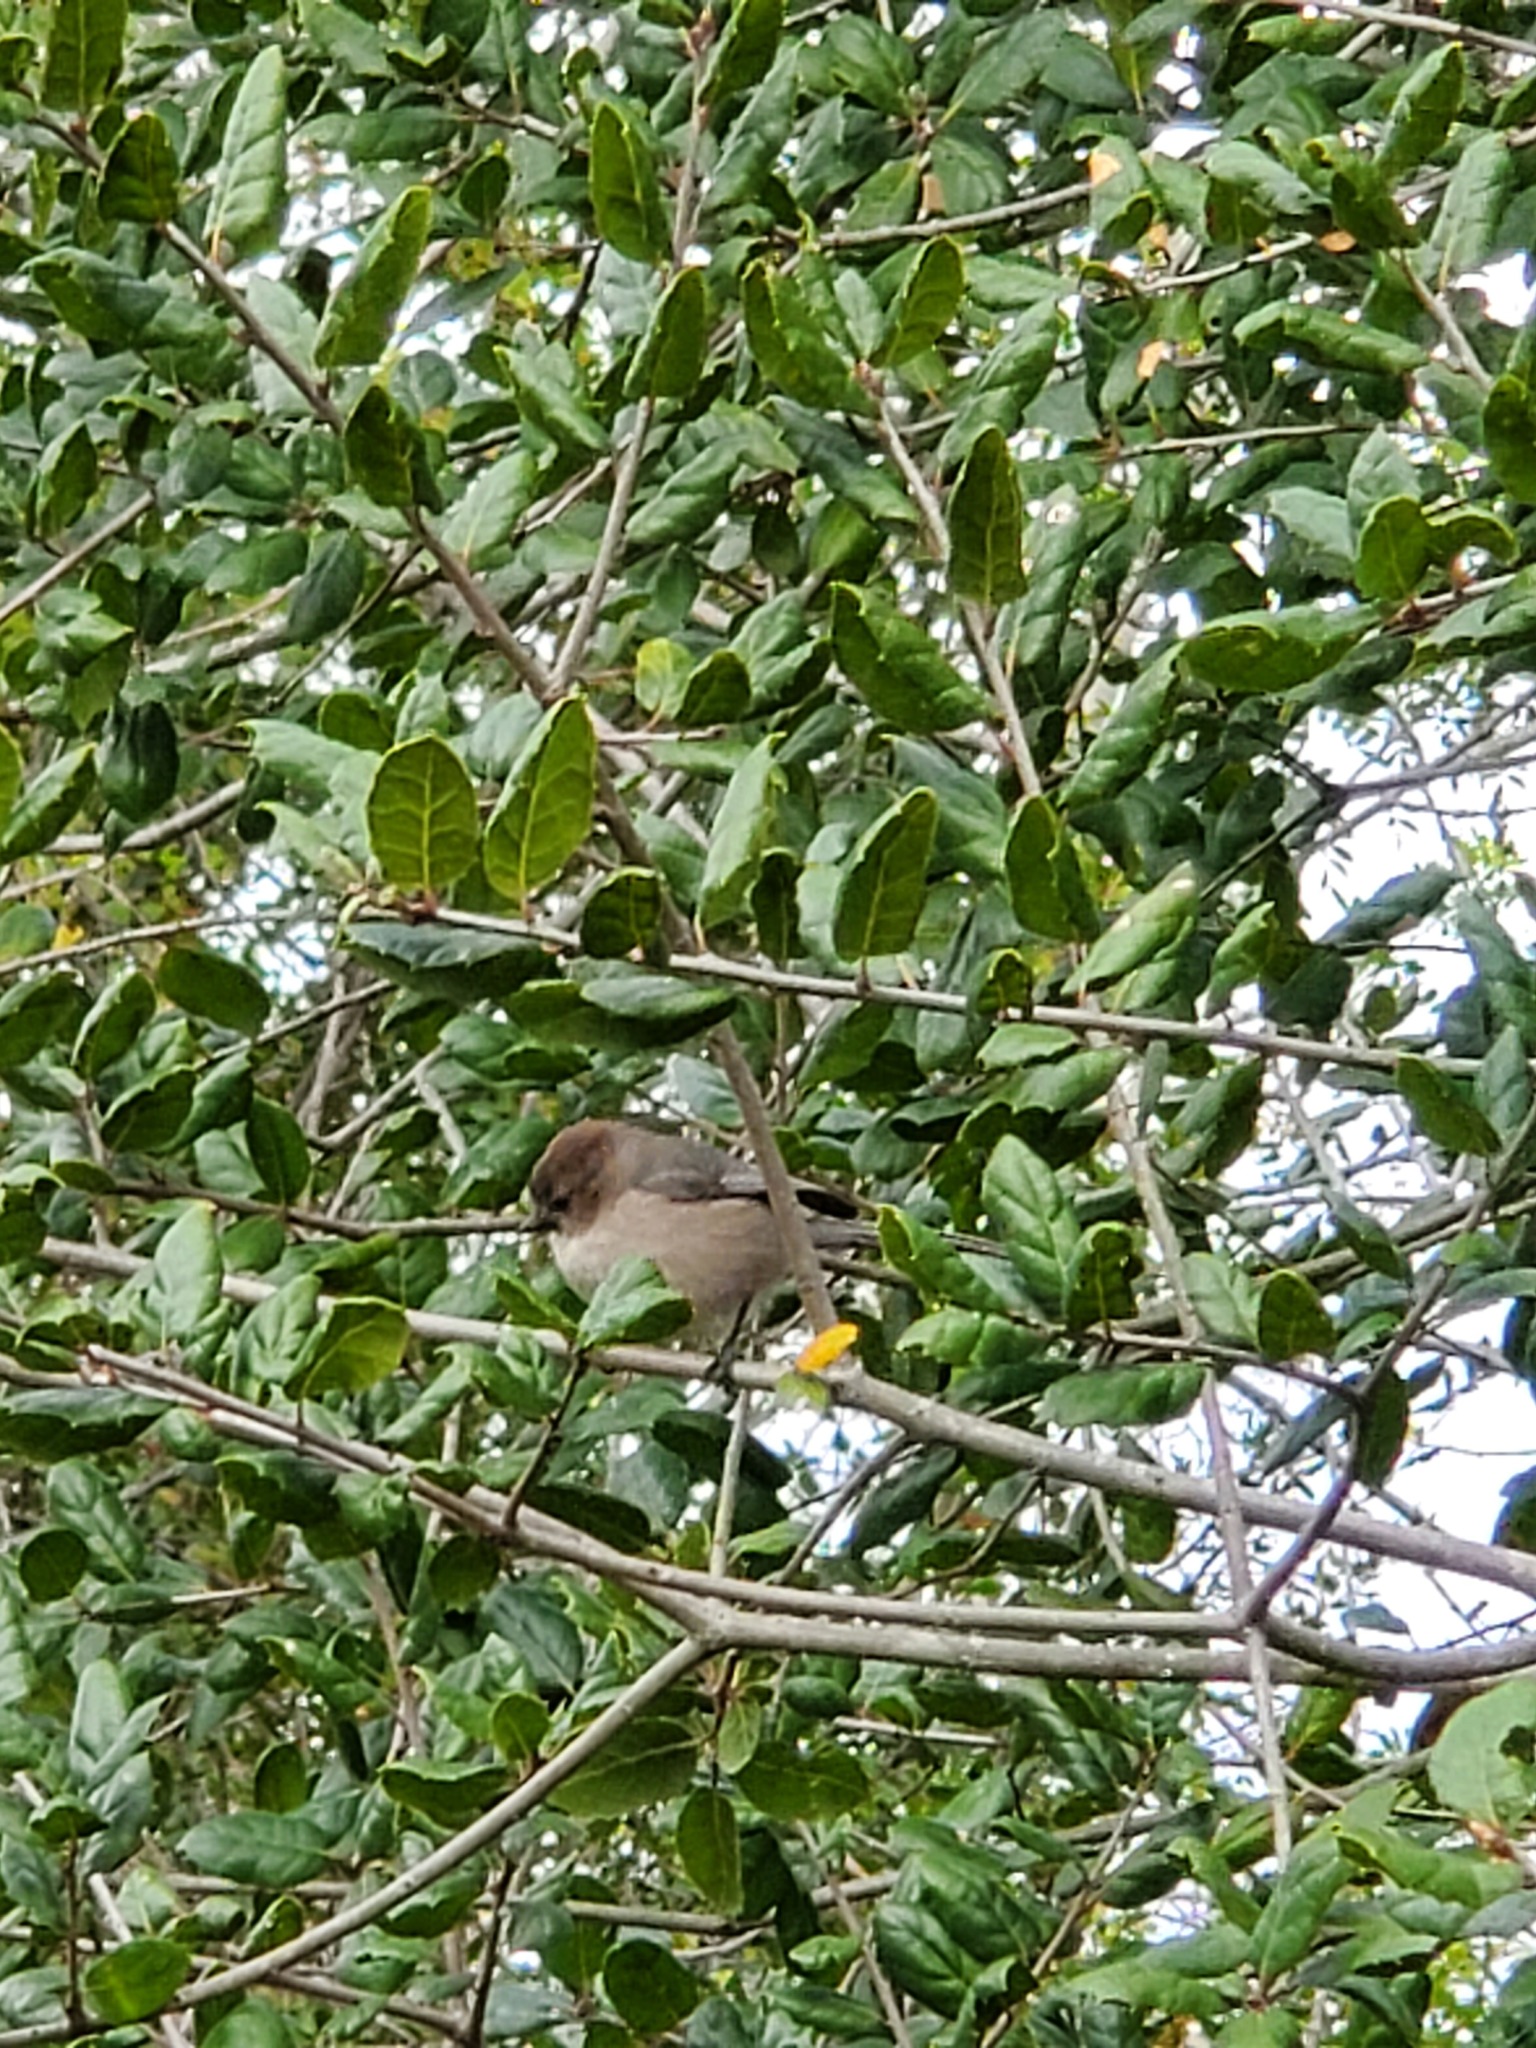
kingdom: Animalia
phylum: Chordata
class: Aves
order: Passeriformes
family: Aegithalidae
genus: Psaltriparus
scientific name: Psaltriparus minimus
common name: American bushtit
